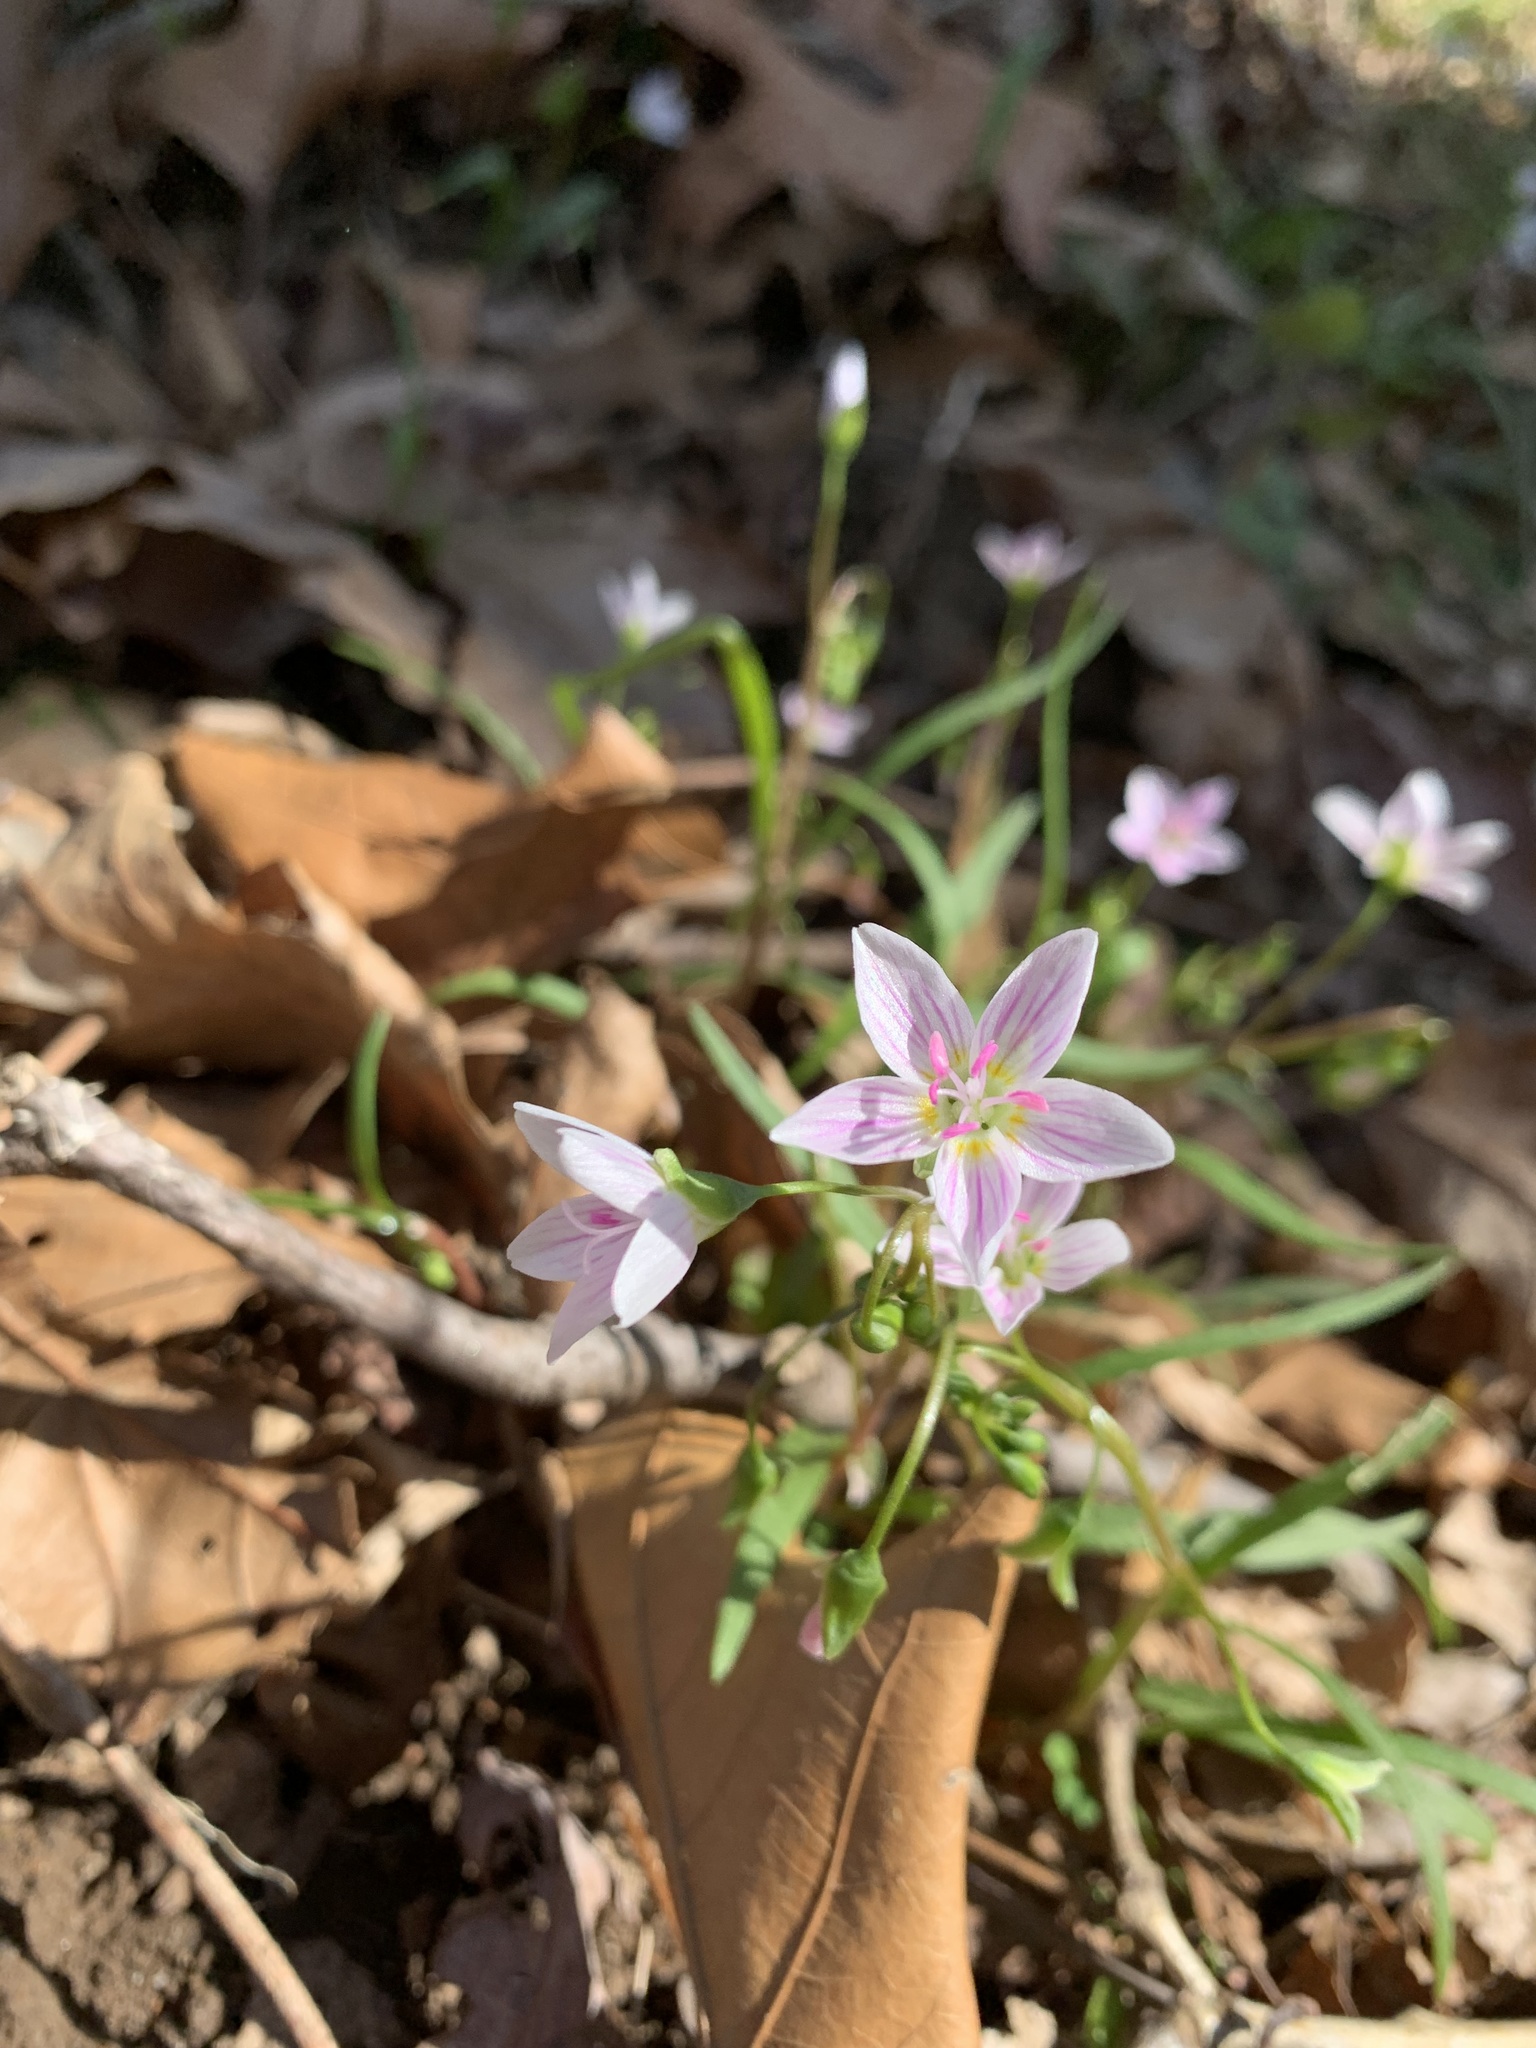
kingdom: Plantae
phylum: Tracheophyta
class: Magnoliopsida
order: Caryophyllales
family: Montiaceae
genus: Claytonia
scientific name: Claytonia virginica
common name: Virginia springbeauty
